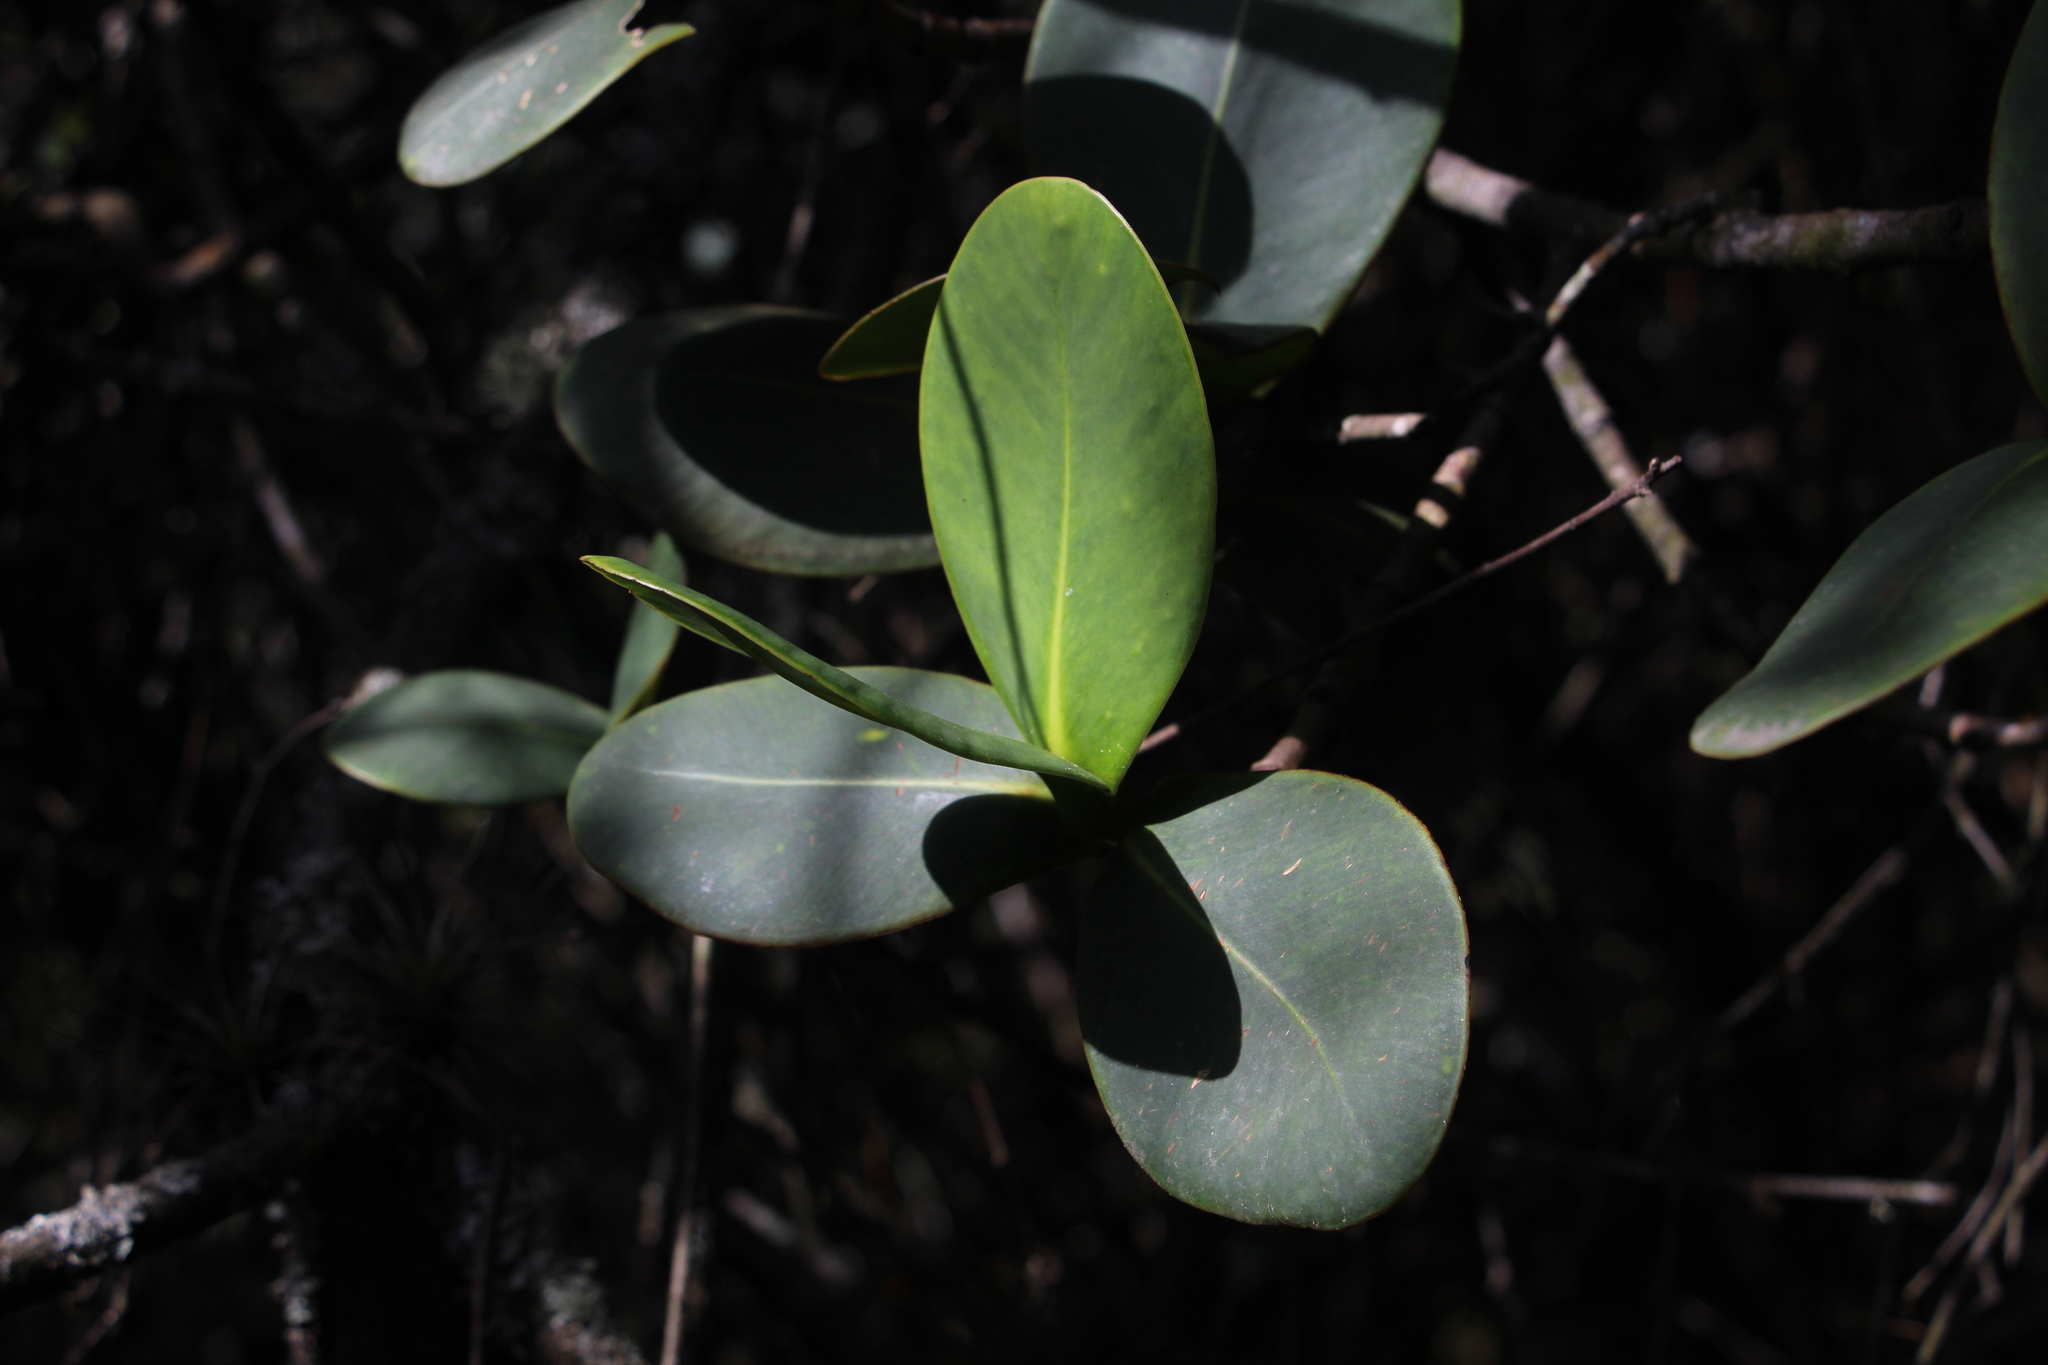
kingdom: Plantae
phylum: Tracheophyta
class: Magnoliopsida
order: Malpighiales
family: Clusiaceae
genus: Clusia
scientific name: Clusia multiflora
